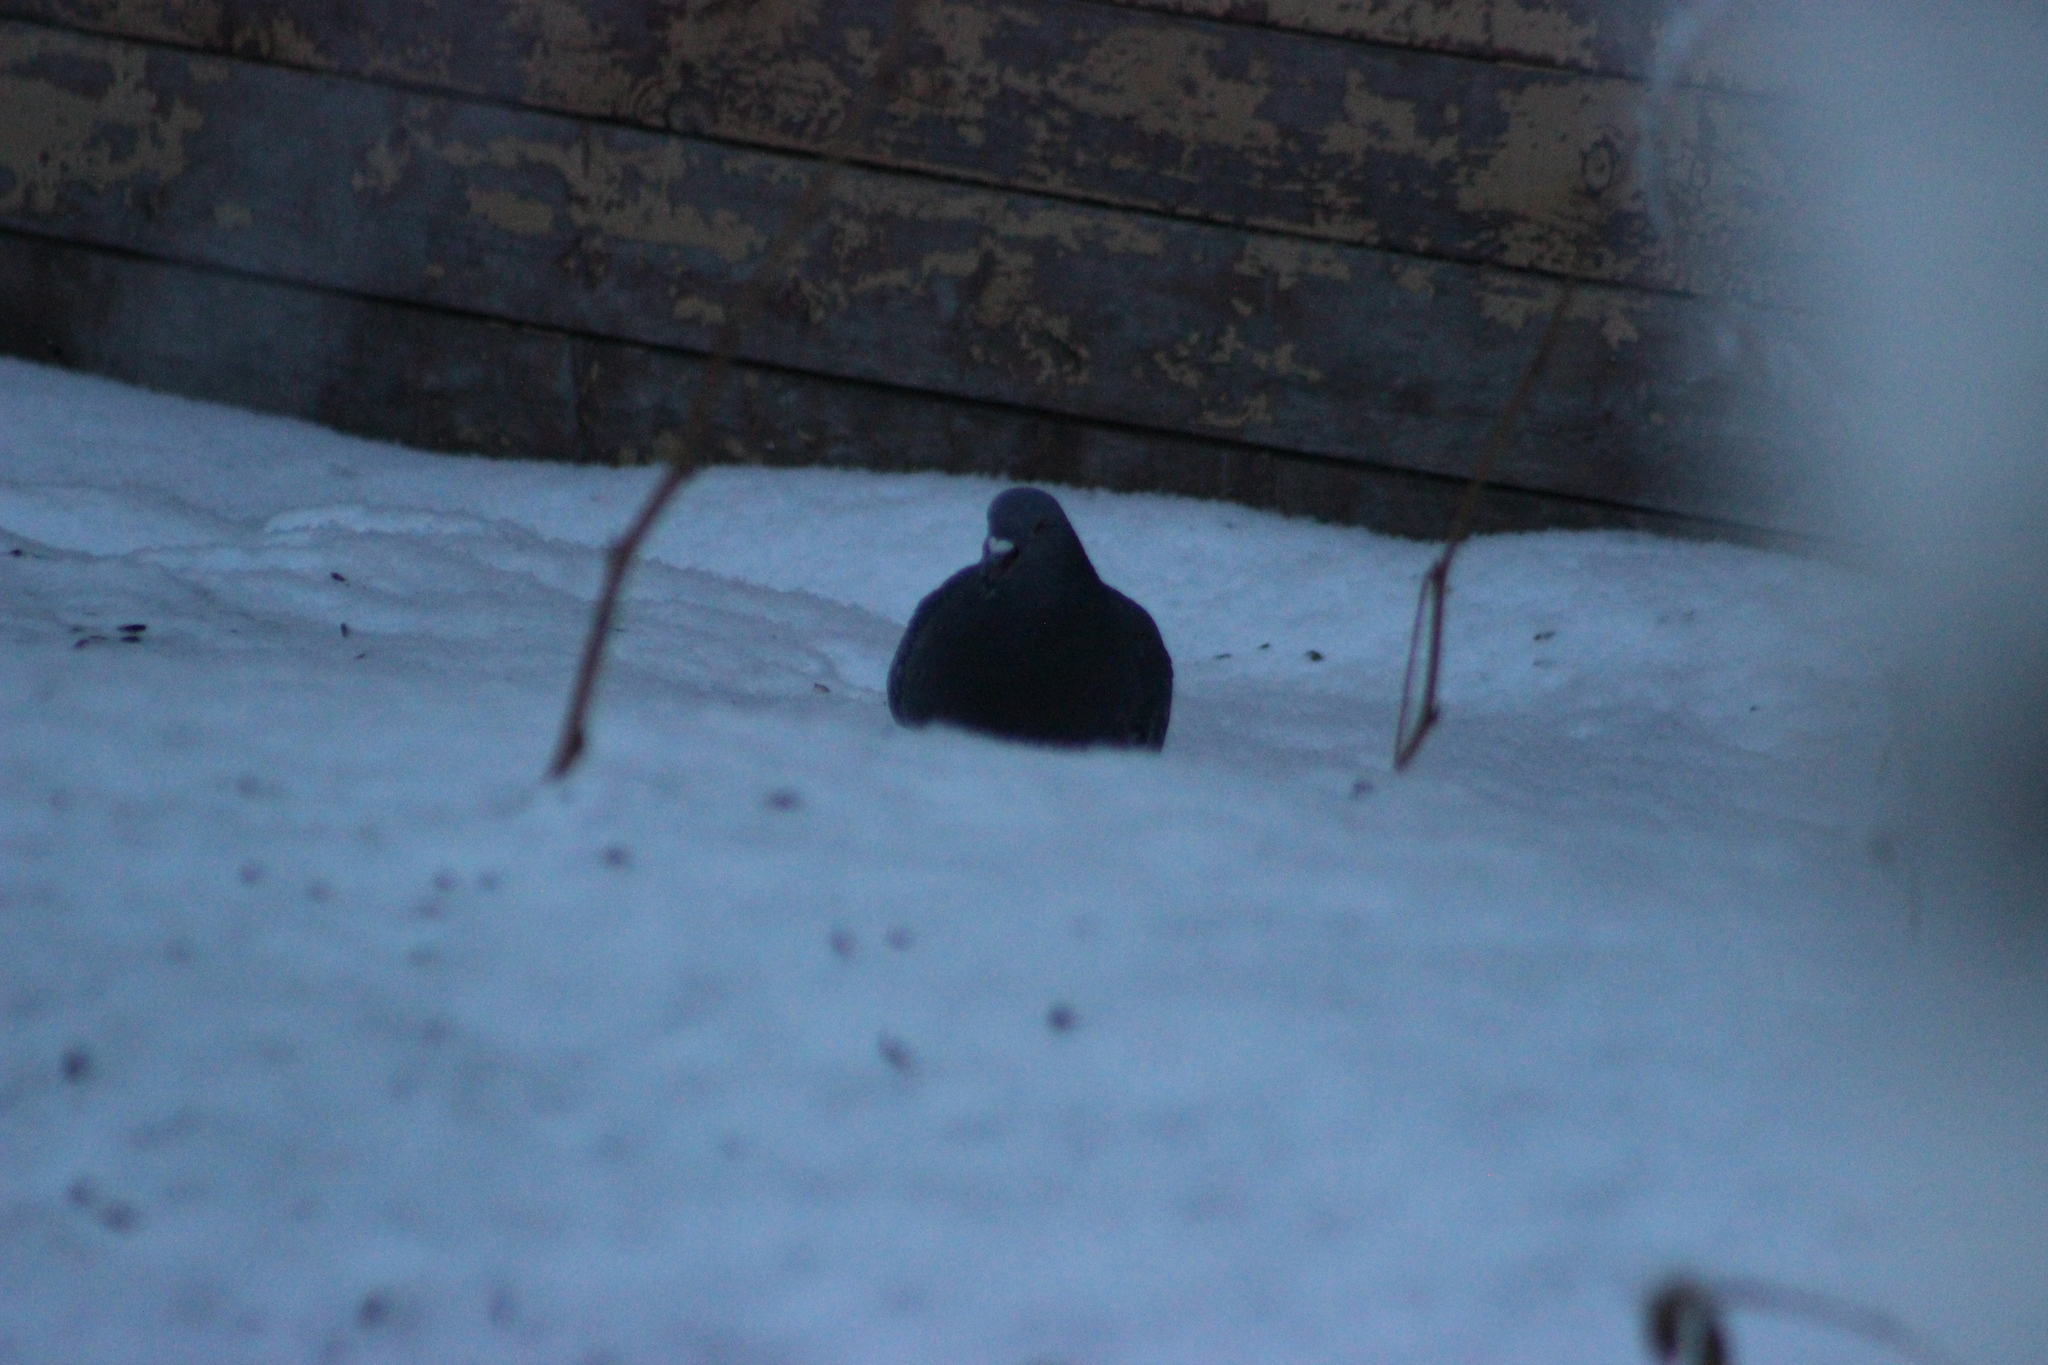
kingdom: Animalia
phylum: Chordata
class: Aves
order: Columbiformes
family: Columbidae
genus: Columba
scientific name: Columba livia
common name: Rock pigeon
